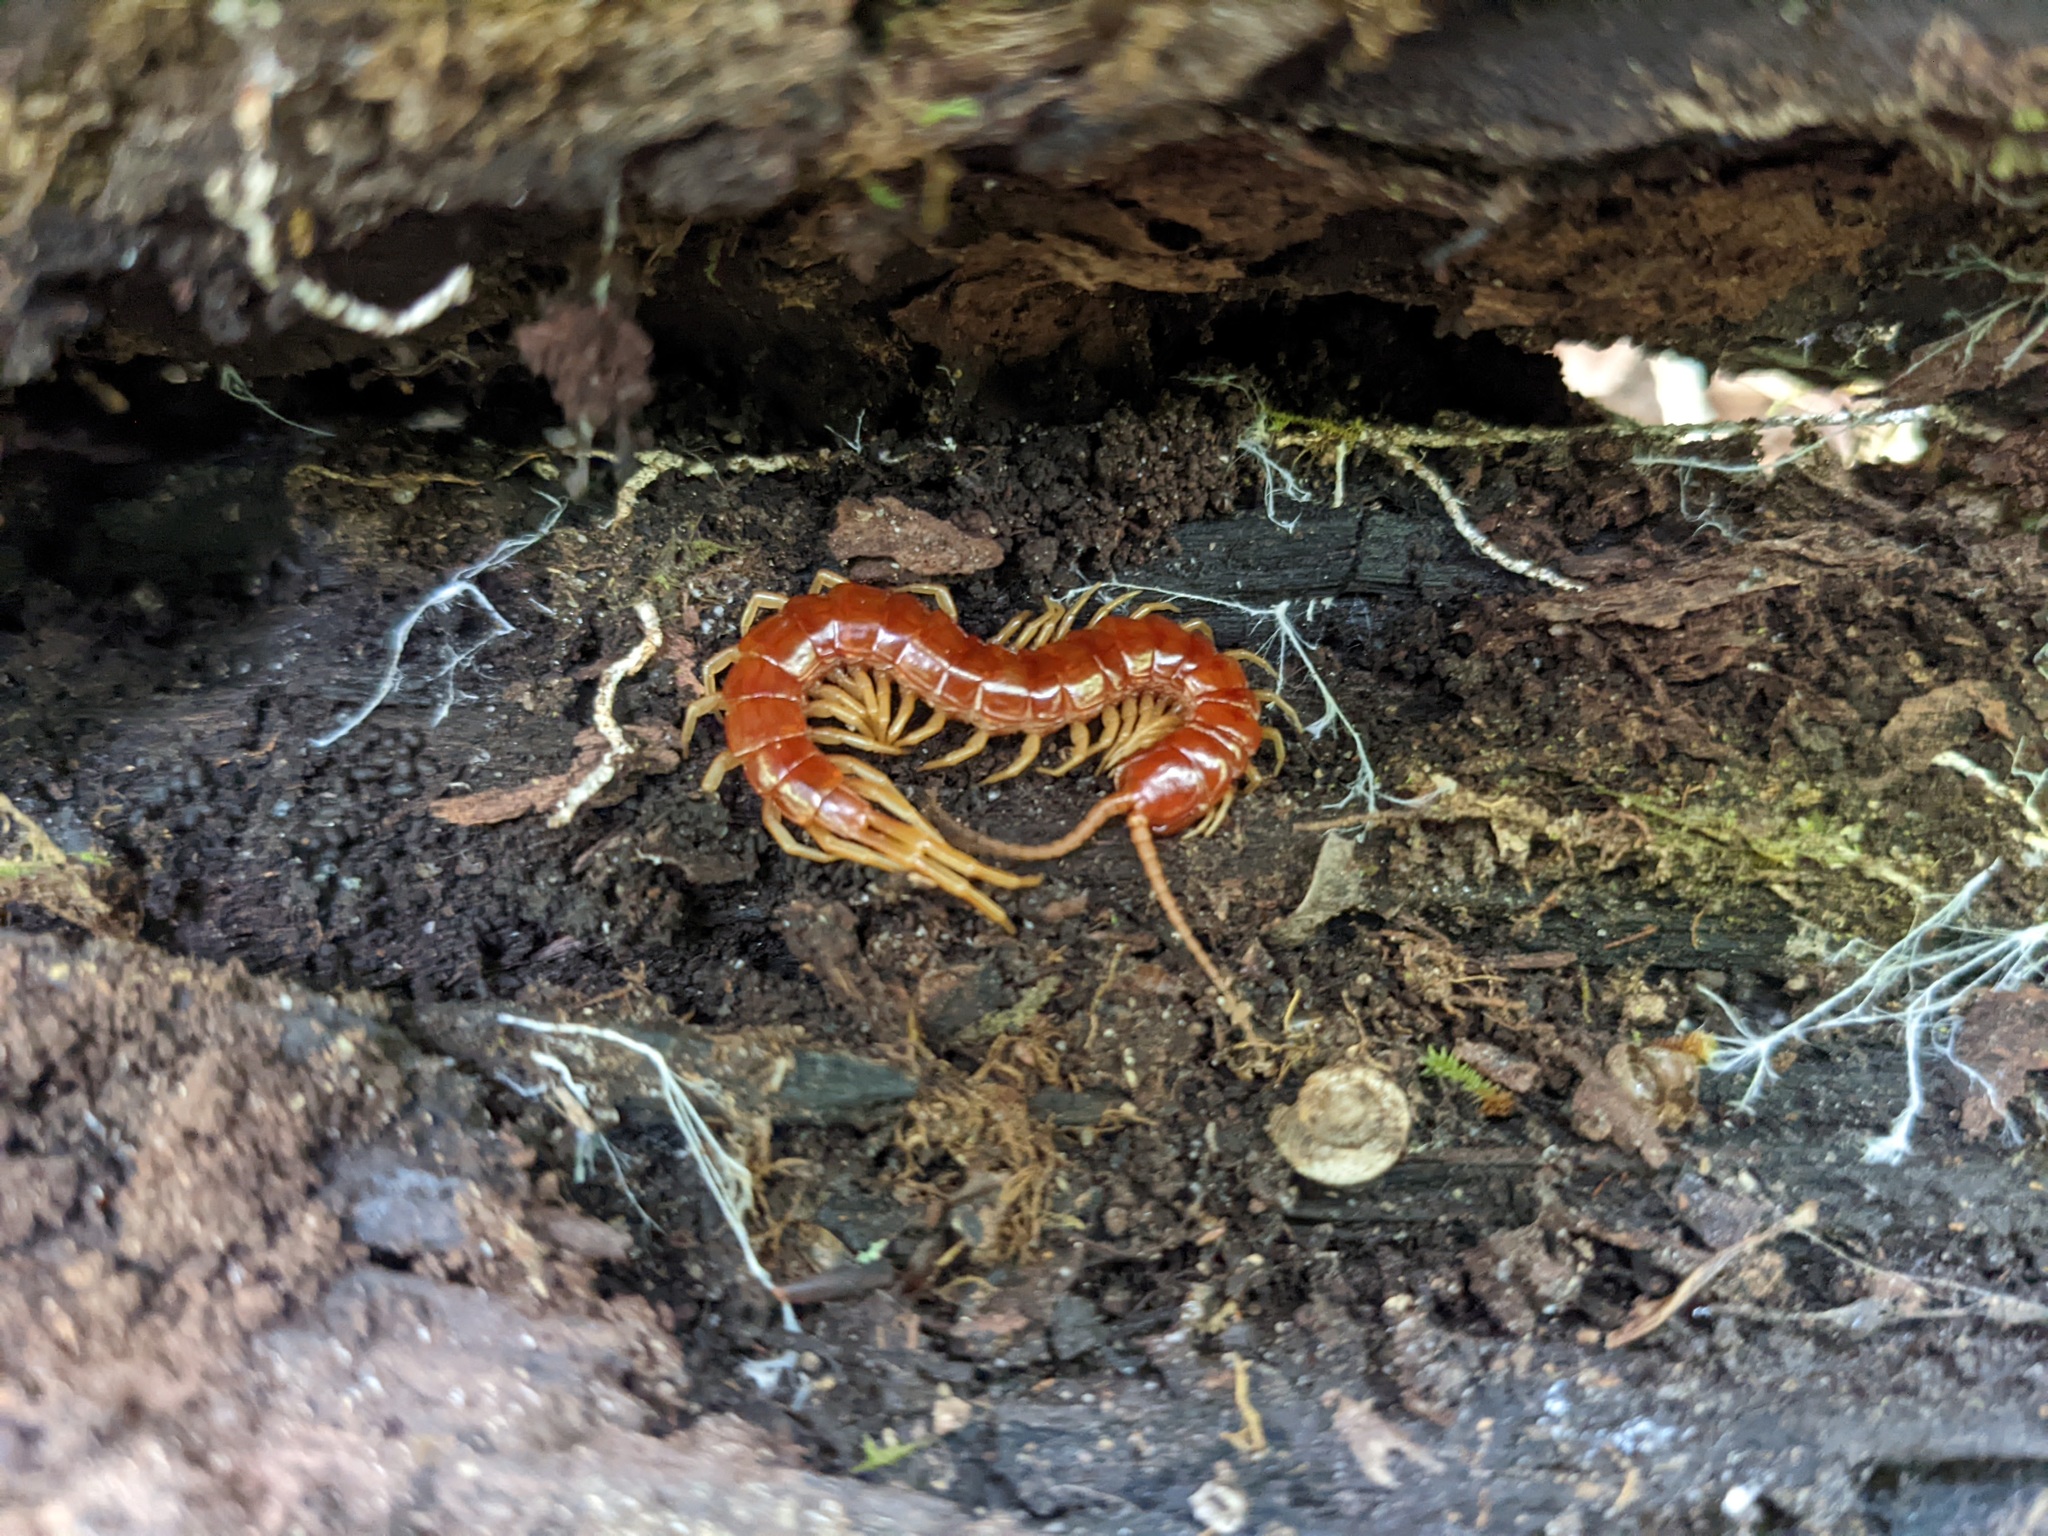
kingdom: Animalia
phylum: Arthropoda
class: Chilopoda
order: Scolopendromorpha
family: Scolopocryptopidae
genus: Scolopocryptops
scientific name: Scolopocryptops sexspinosus
